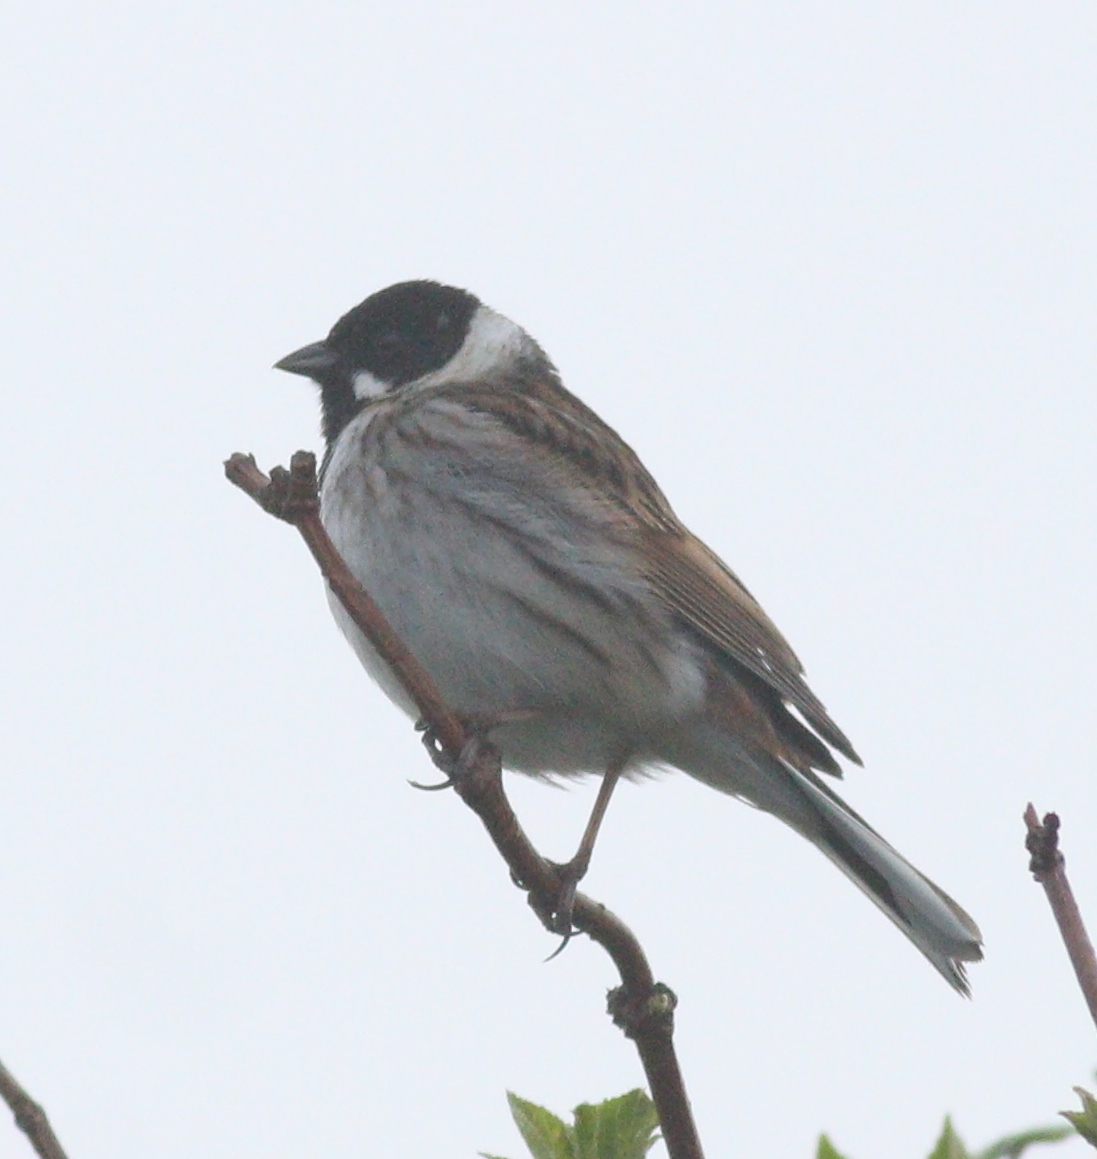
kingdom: Animalia
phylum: Chordata
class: Aves
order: Passeriformes
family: Emberizidae
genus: Emberiza
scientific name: Emberiza schoeniclus
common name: Reed bunting
